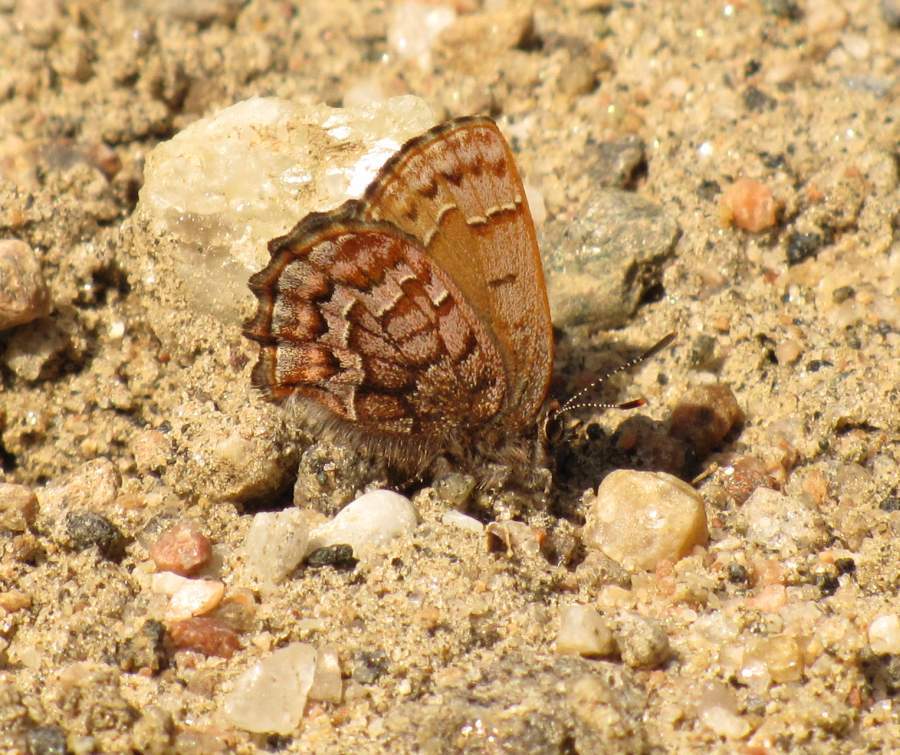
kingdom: Animalia
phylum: Arthropoda
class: Insecta
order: Lepidoptera
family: Lycaenidae
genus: Incisalia
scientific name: Incisalia niphon
